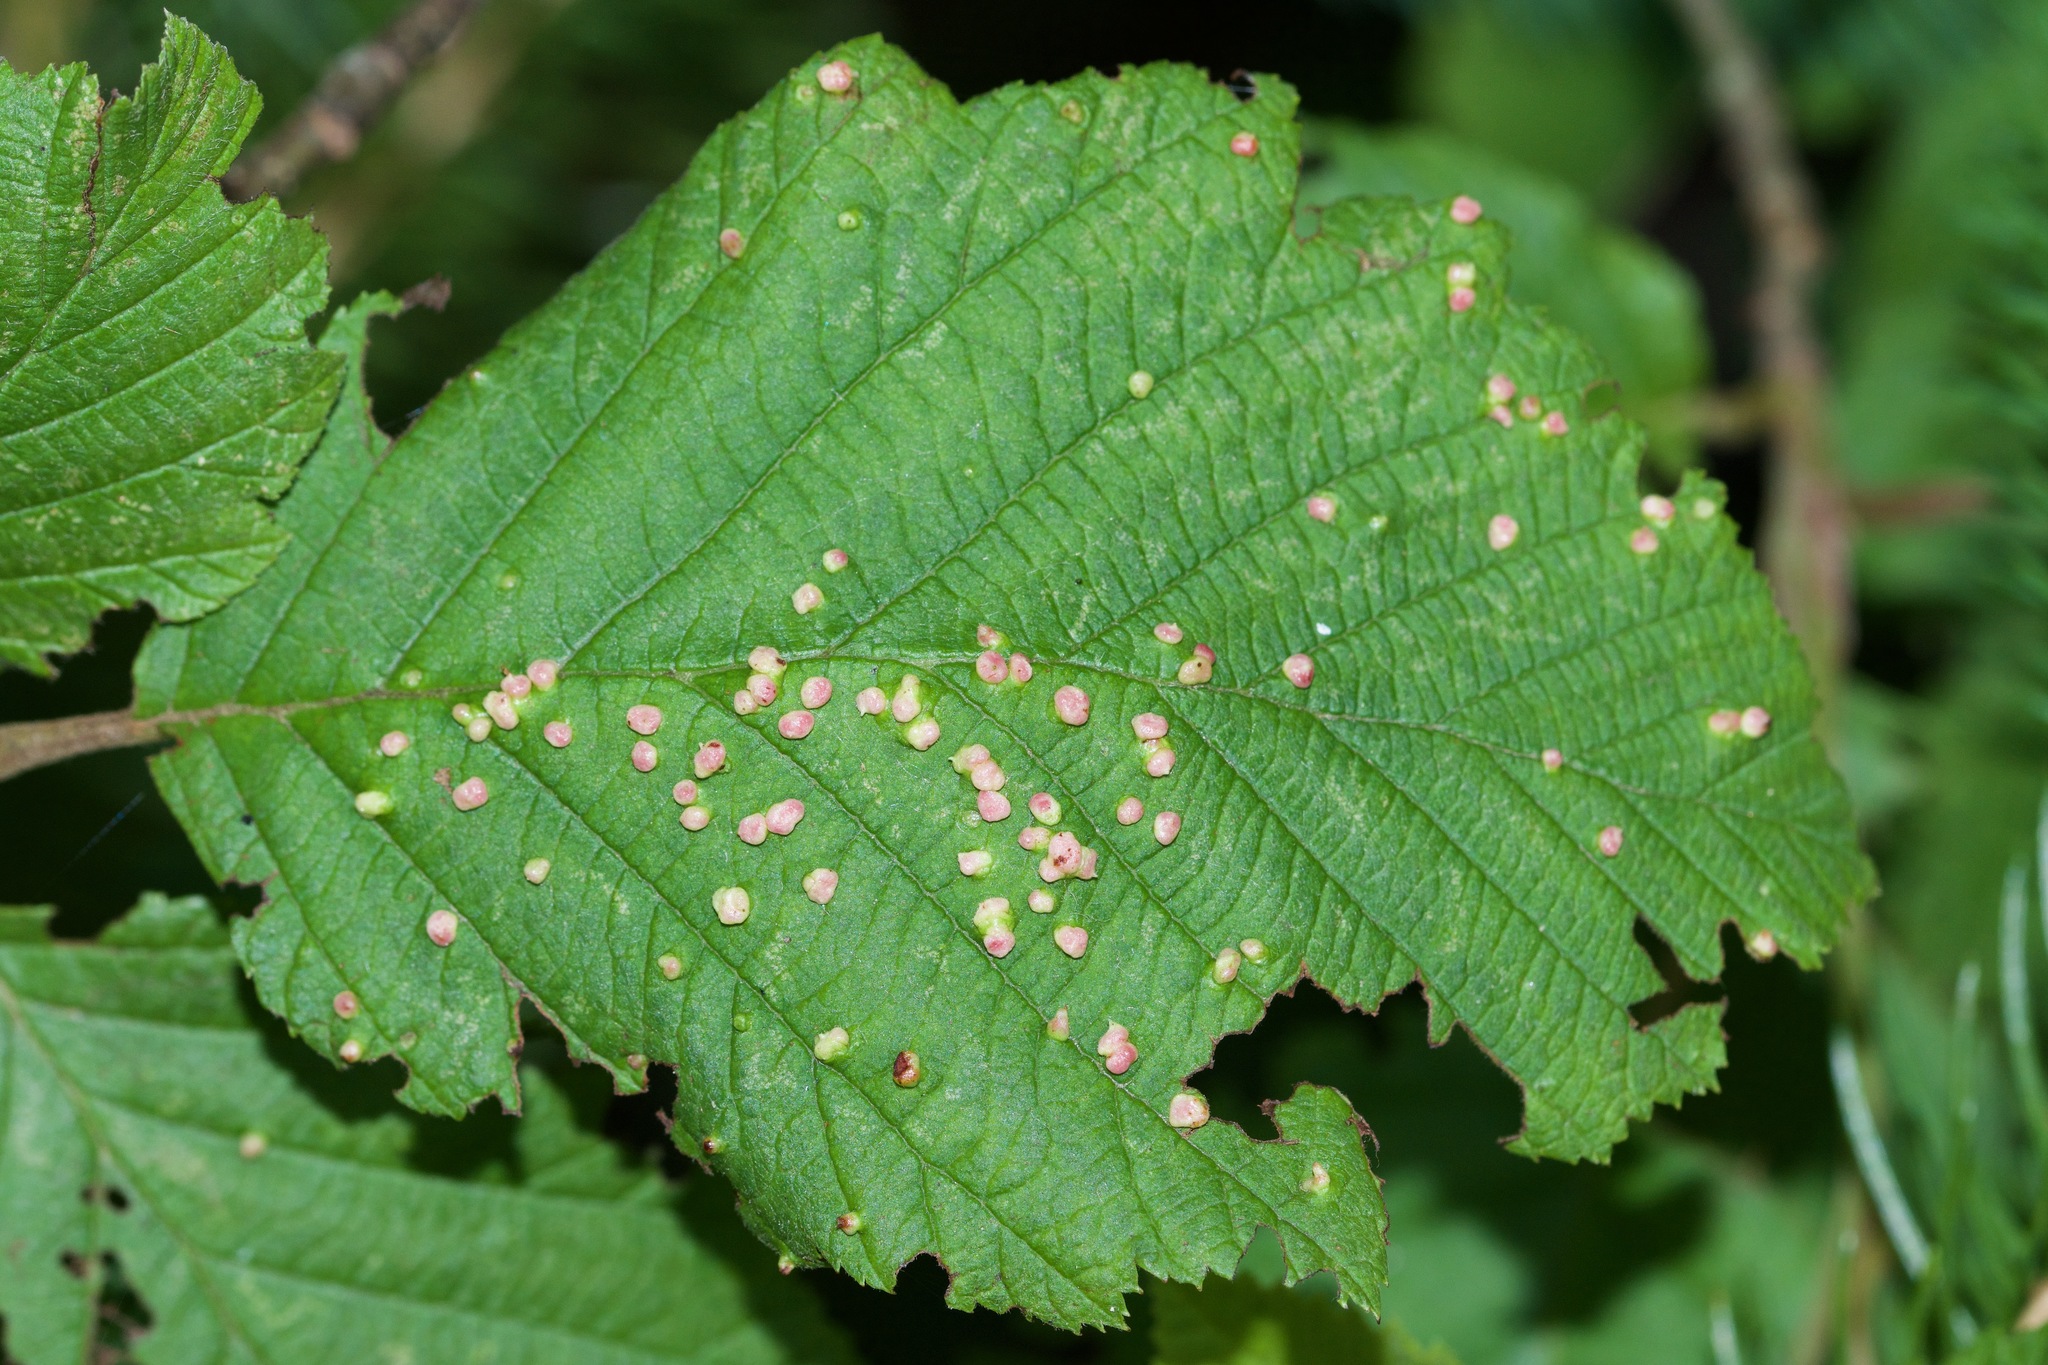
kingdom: Animalia
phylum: Arthropoda
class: Arachnida
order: Trombidiformes
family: Eriophyidae
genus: Eriophyes
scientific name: Eriophyes laevis
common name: Alder leaf gall mite
